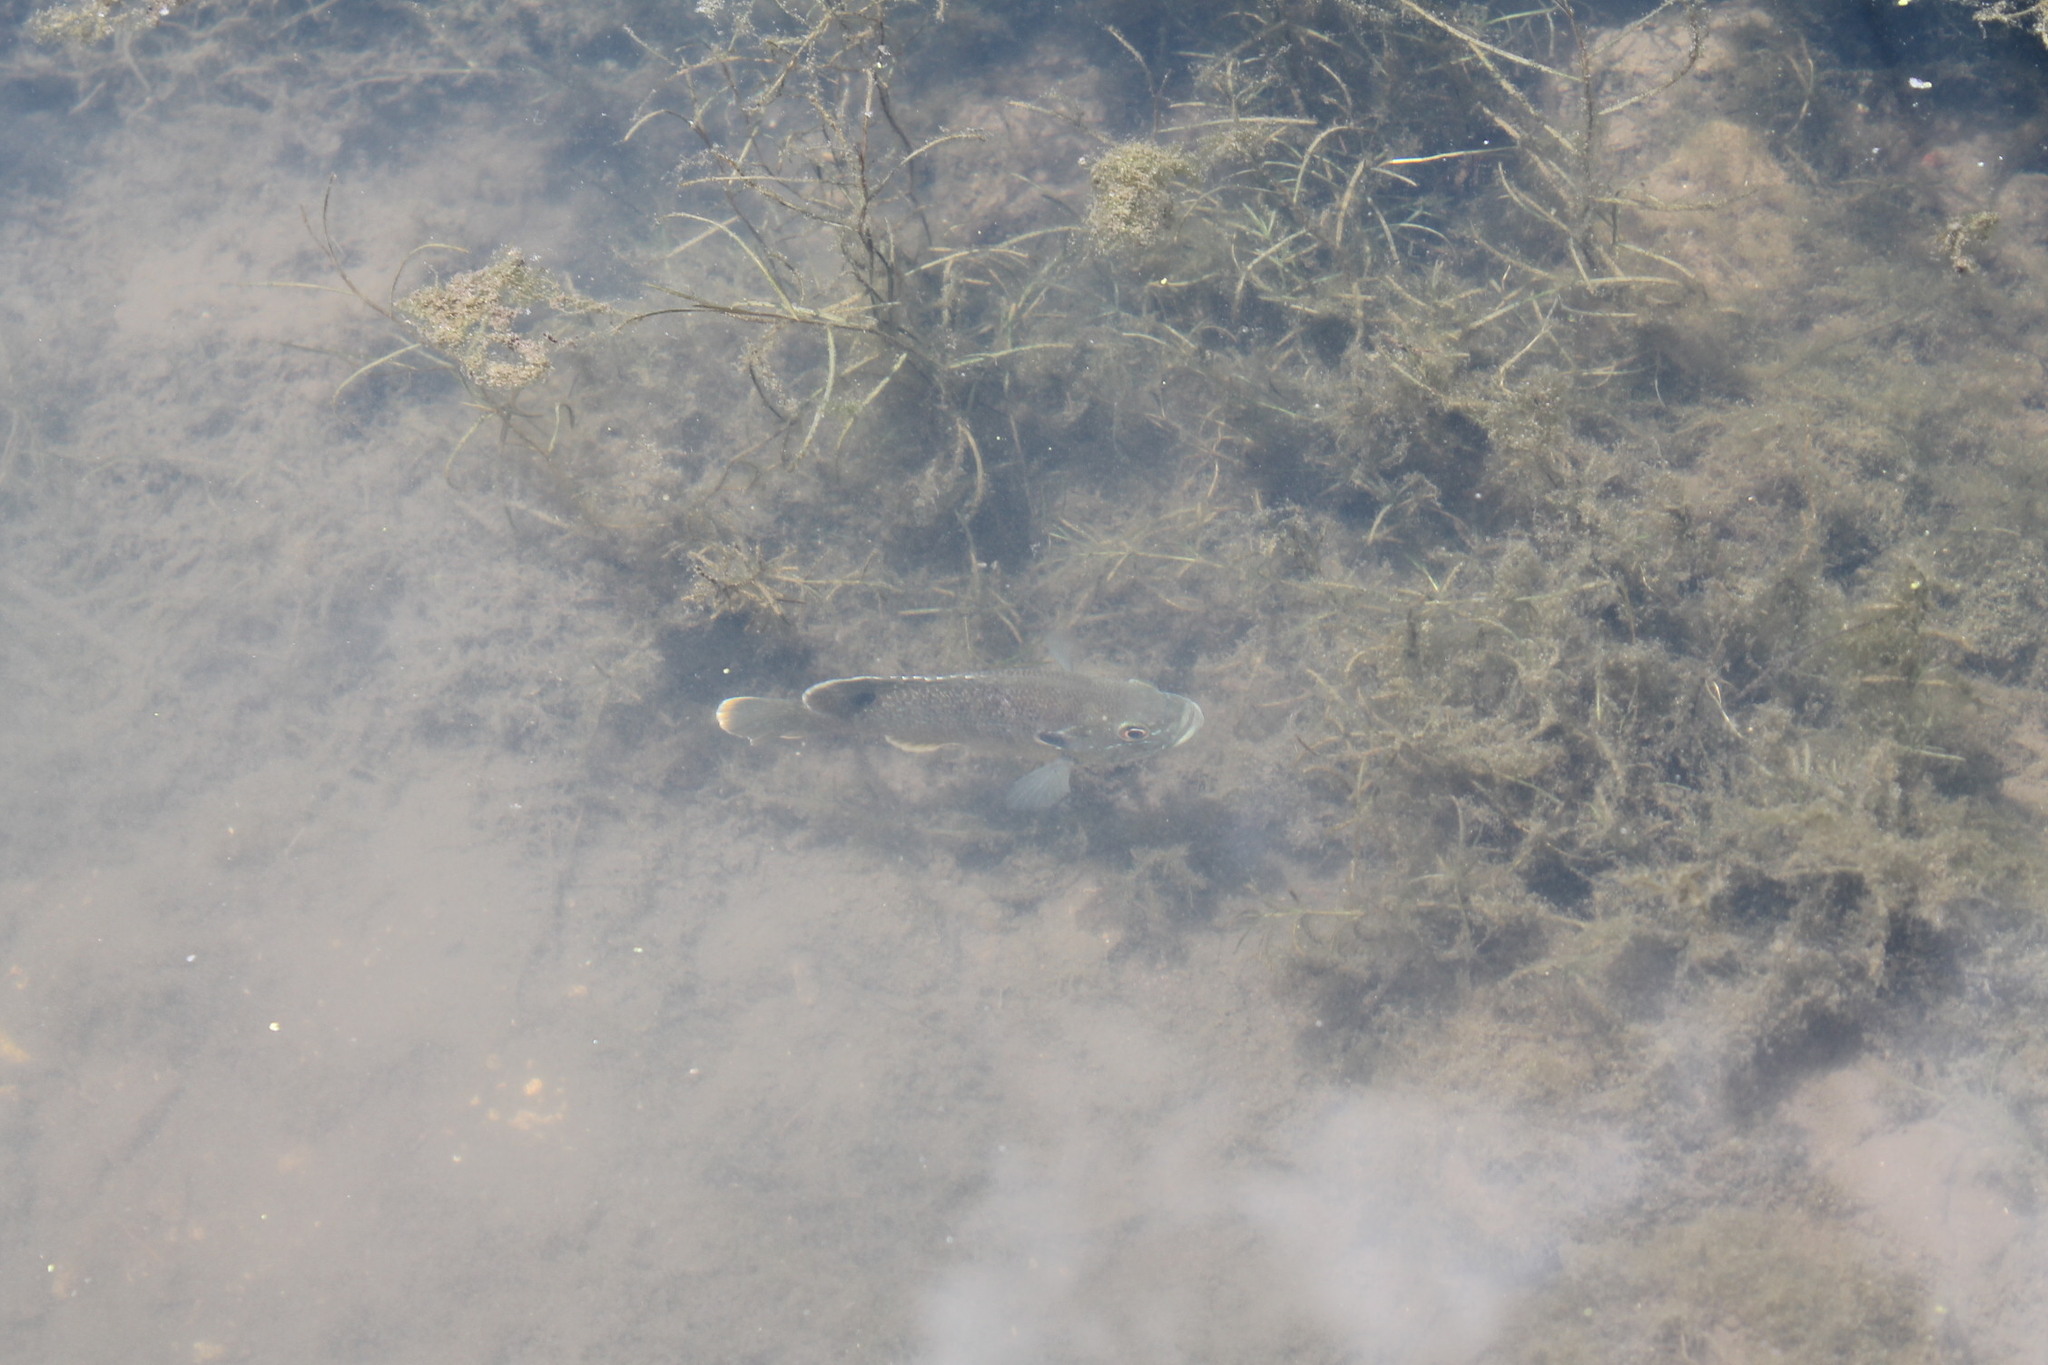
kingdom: Animalia
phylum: Chordata
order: Perciformes
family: Centrarchidae
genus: Lepomis
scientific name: Lepomis cyanellus
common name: Green sunfish
